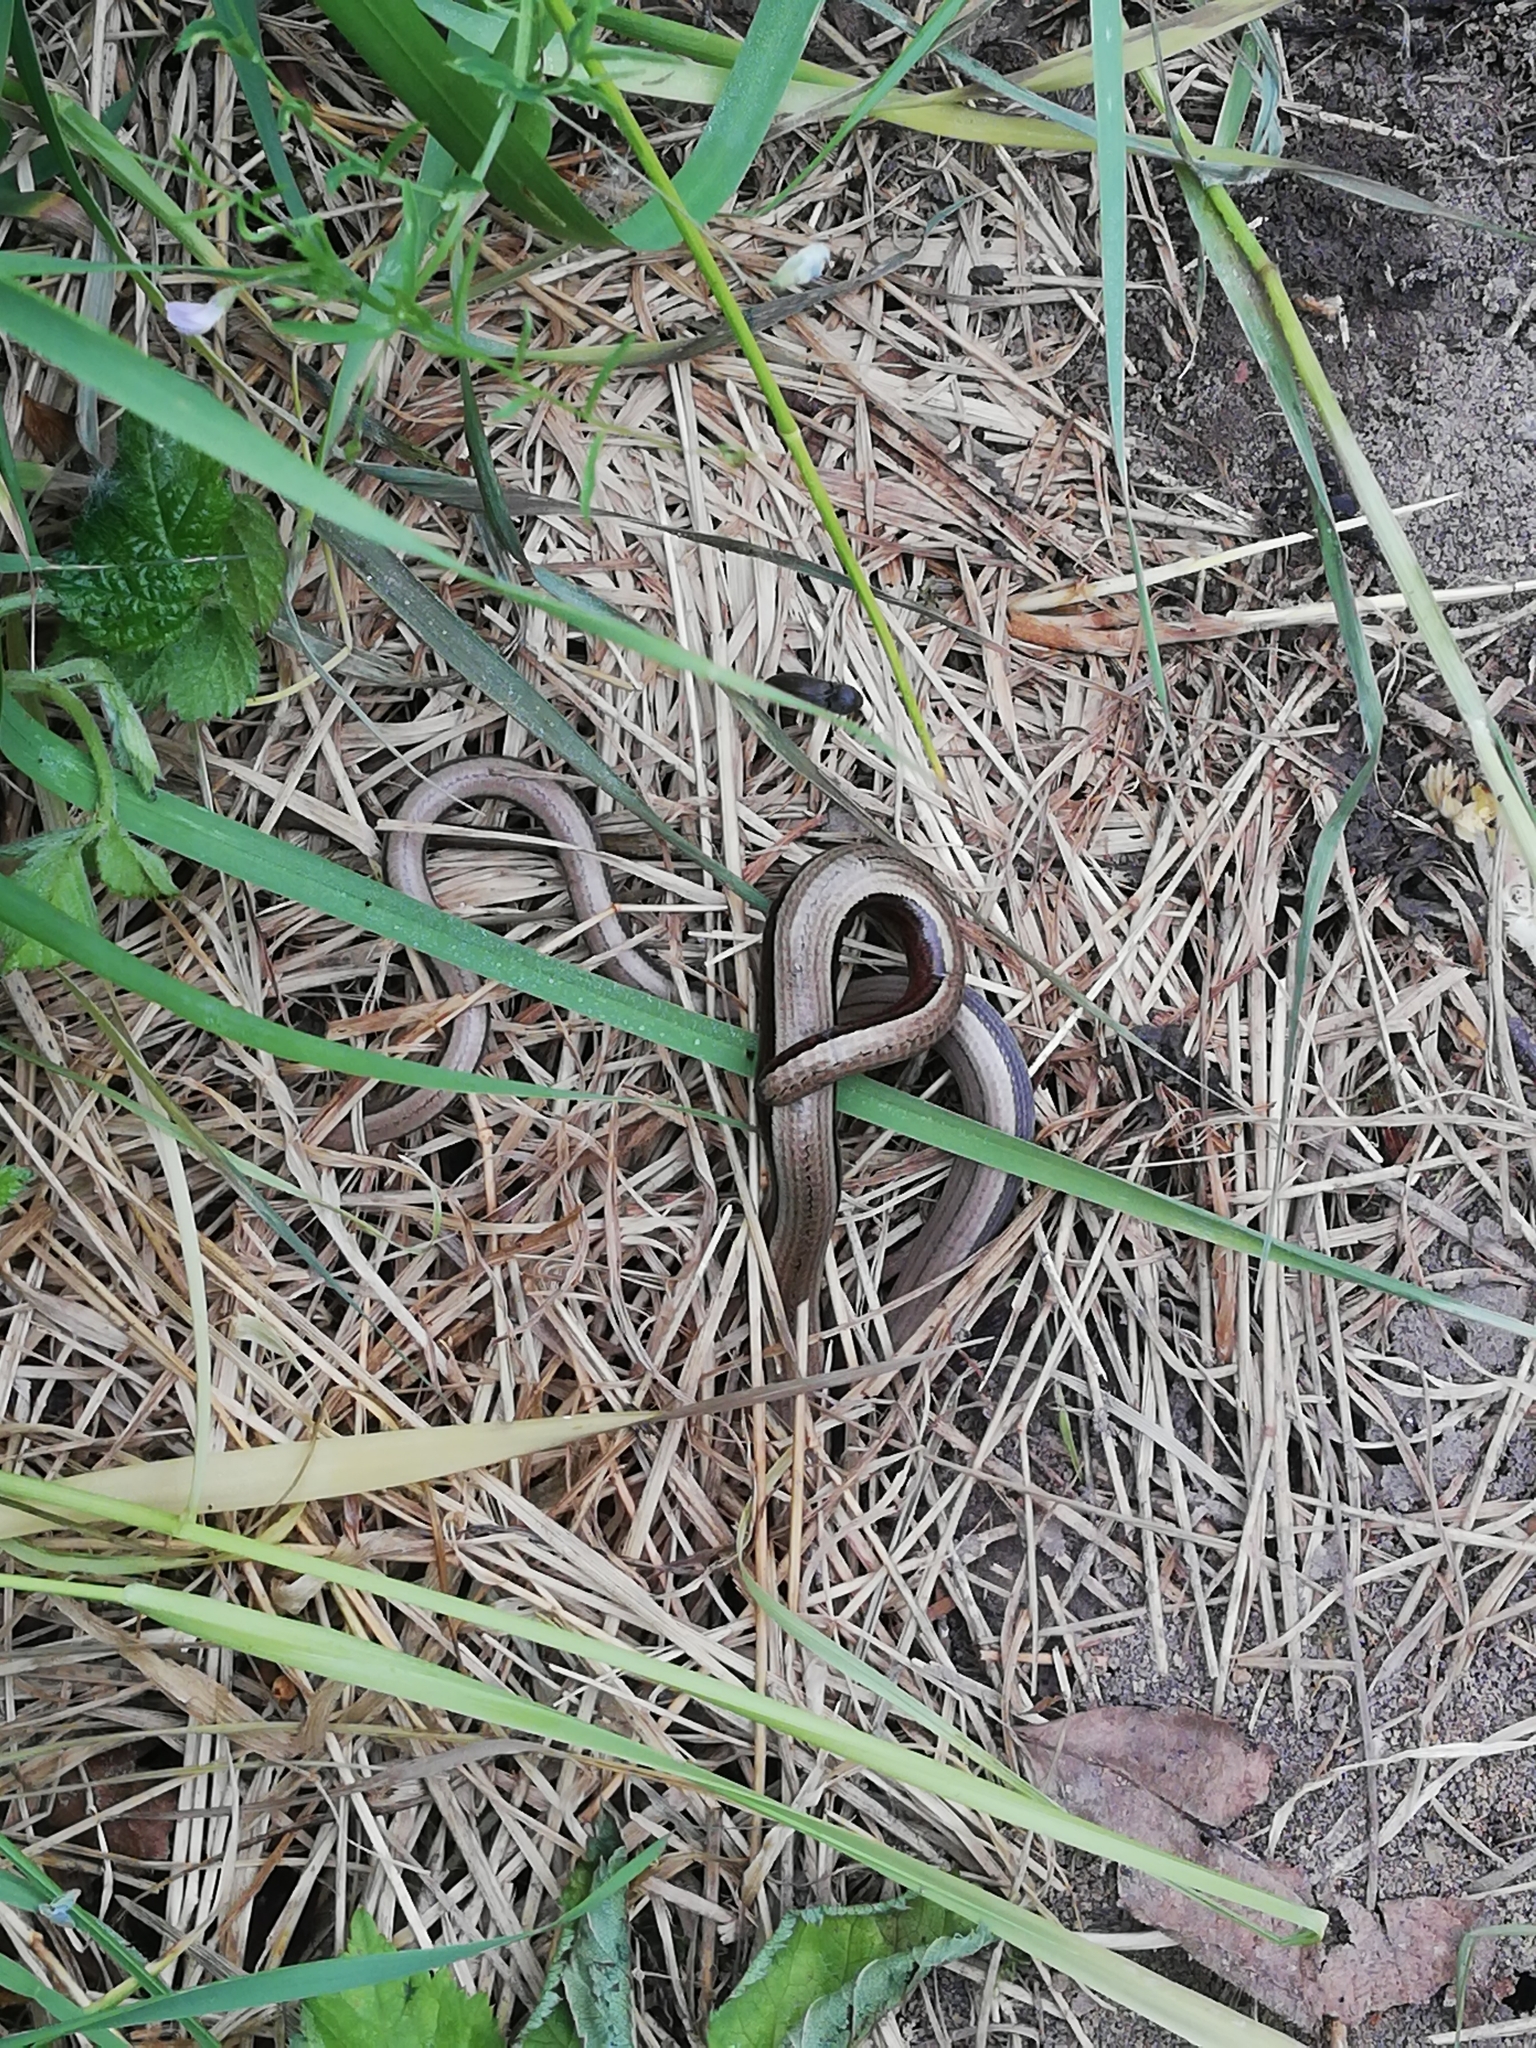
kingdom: Animalia
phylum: Chordata
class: Squamata
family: Anguidae
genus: Anguis
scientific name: Anguis fragilis
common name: Slow worm
